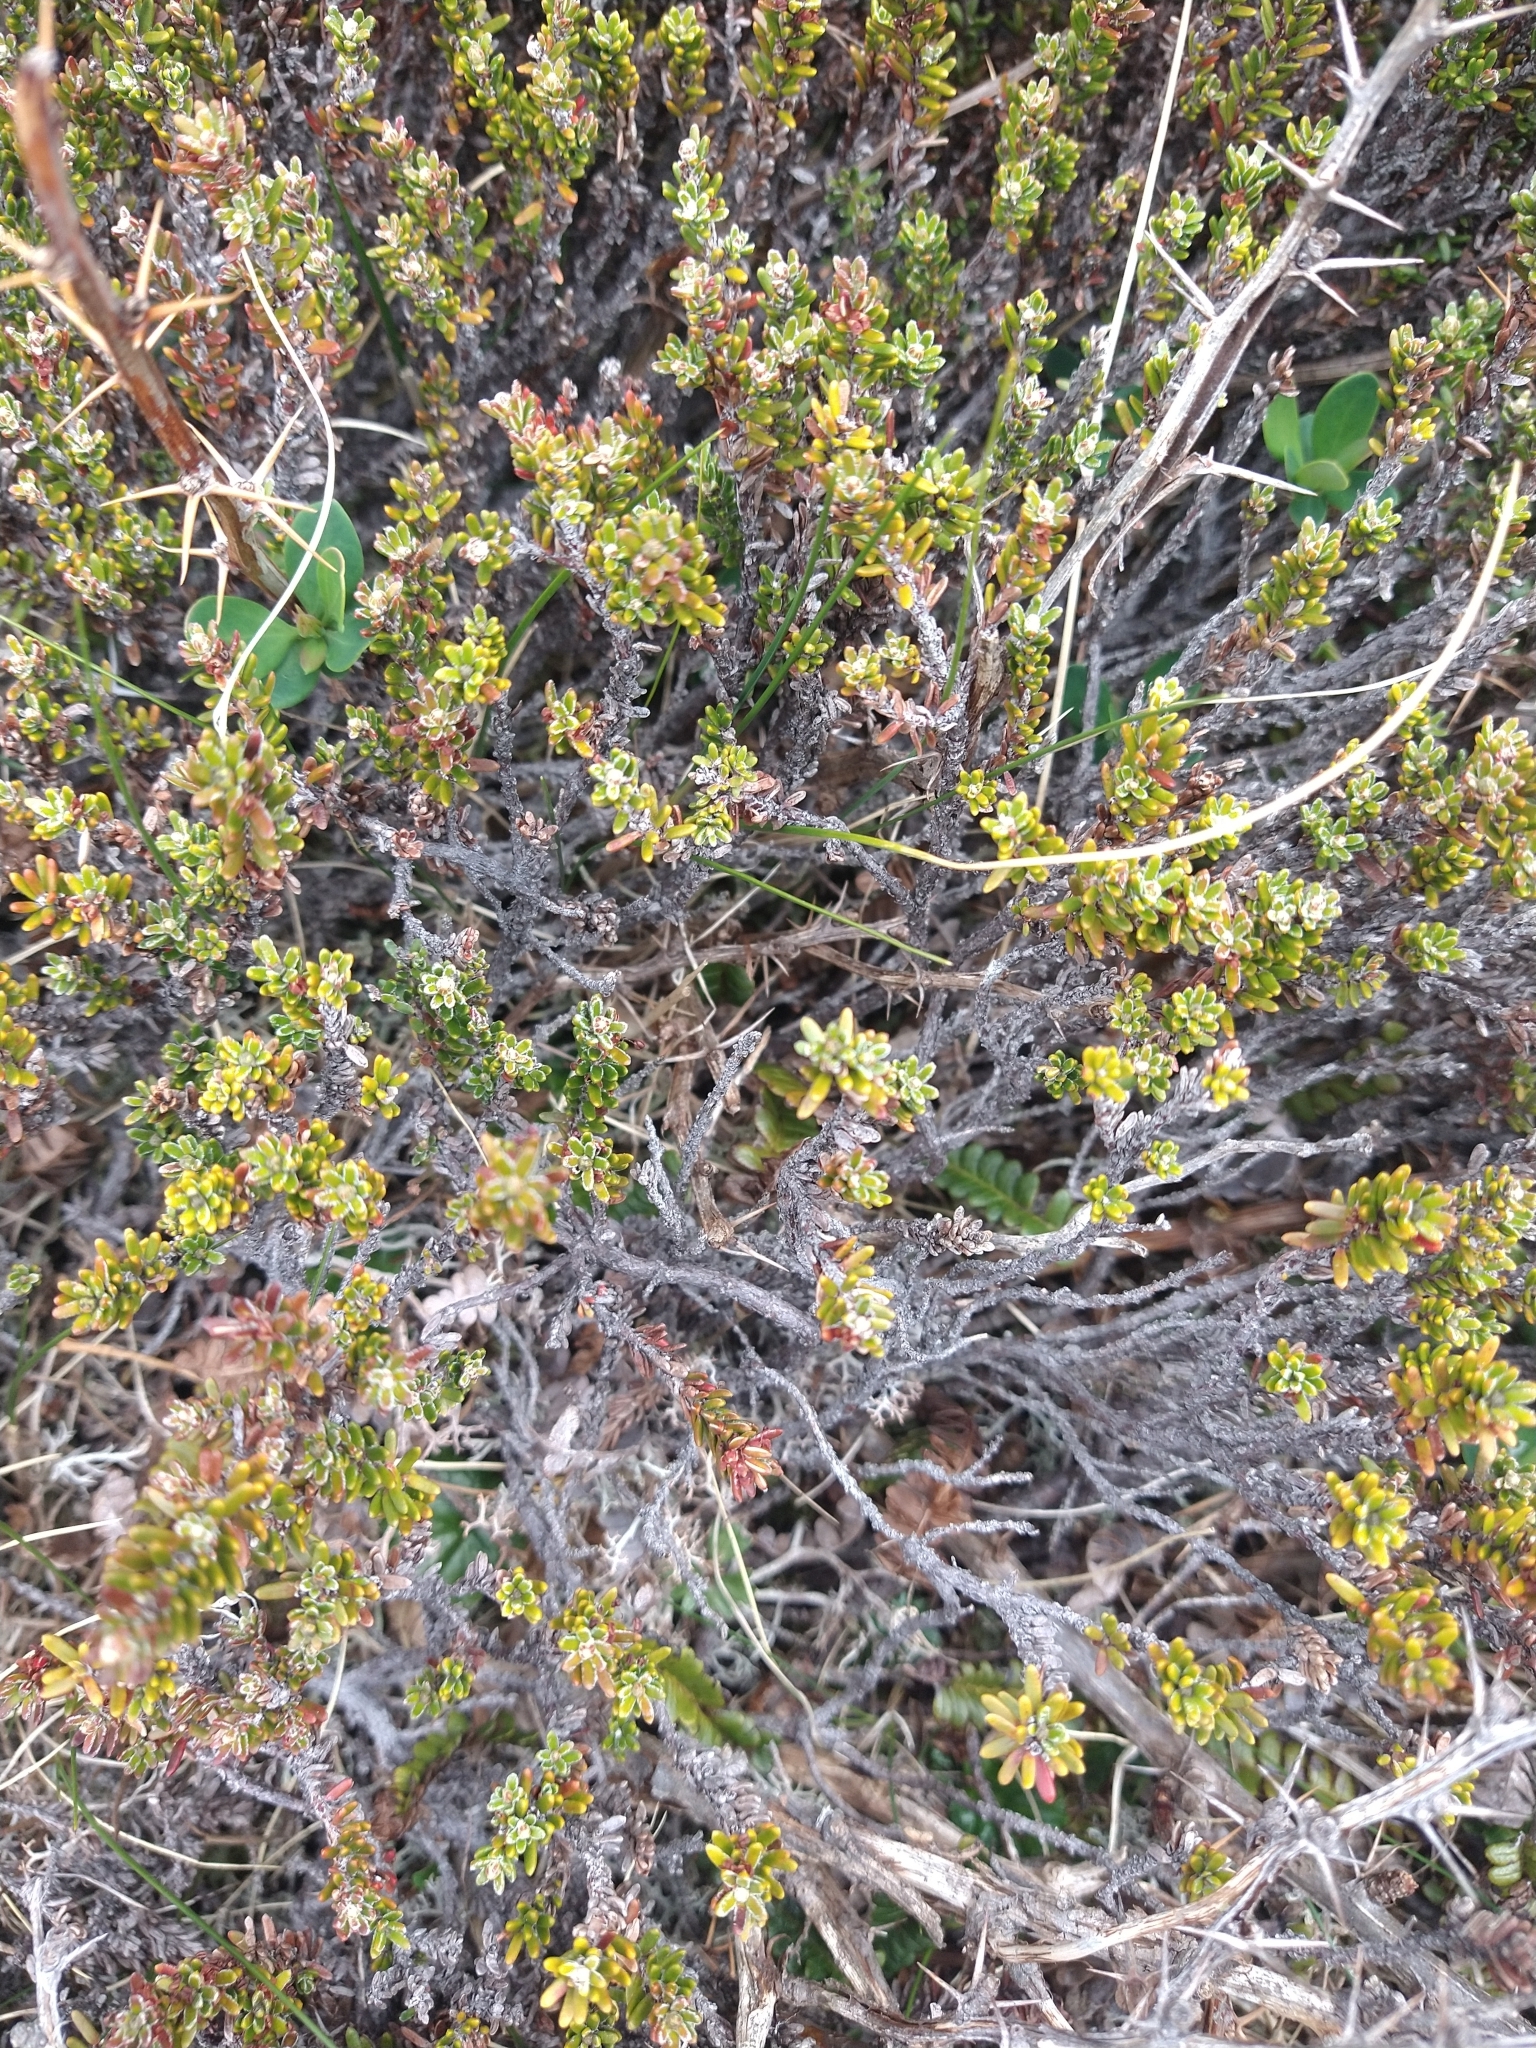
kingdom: Plantae
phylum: Tracheophyta
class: Magnoliopsida
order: Ericales
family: Ericaceae
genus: Empetrum
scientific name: Empetrum rubrum
